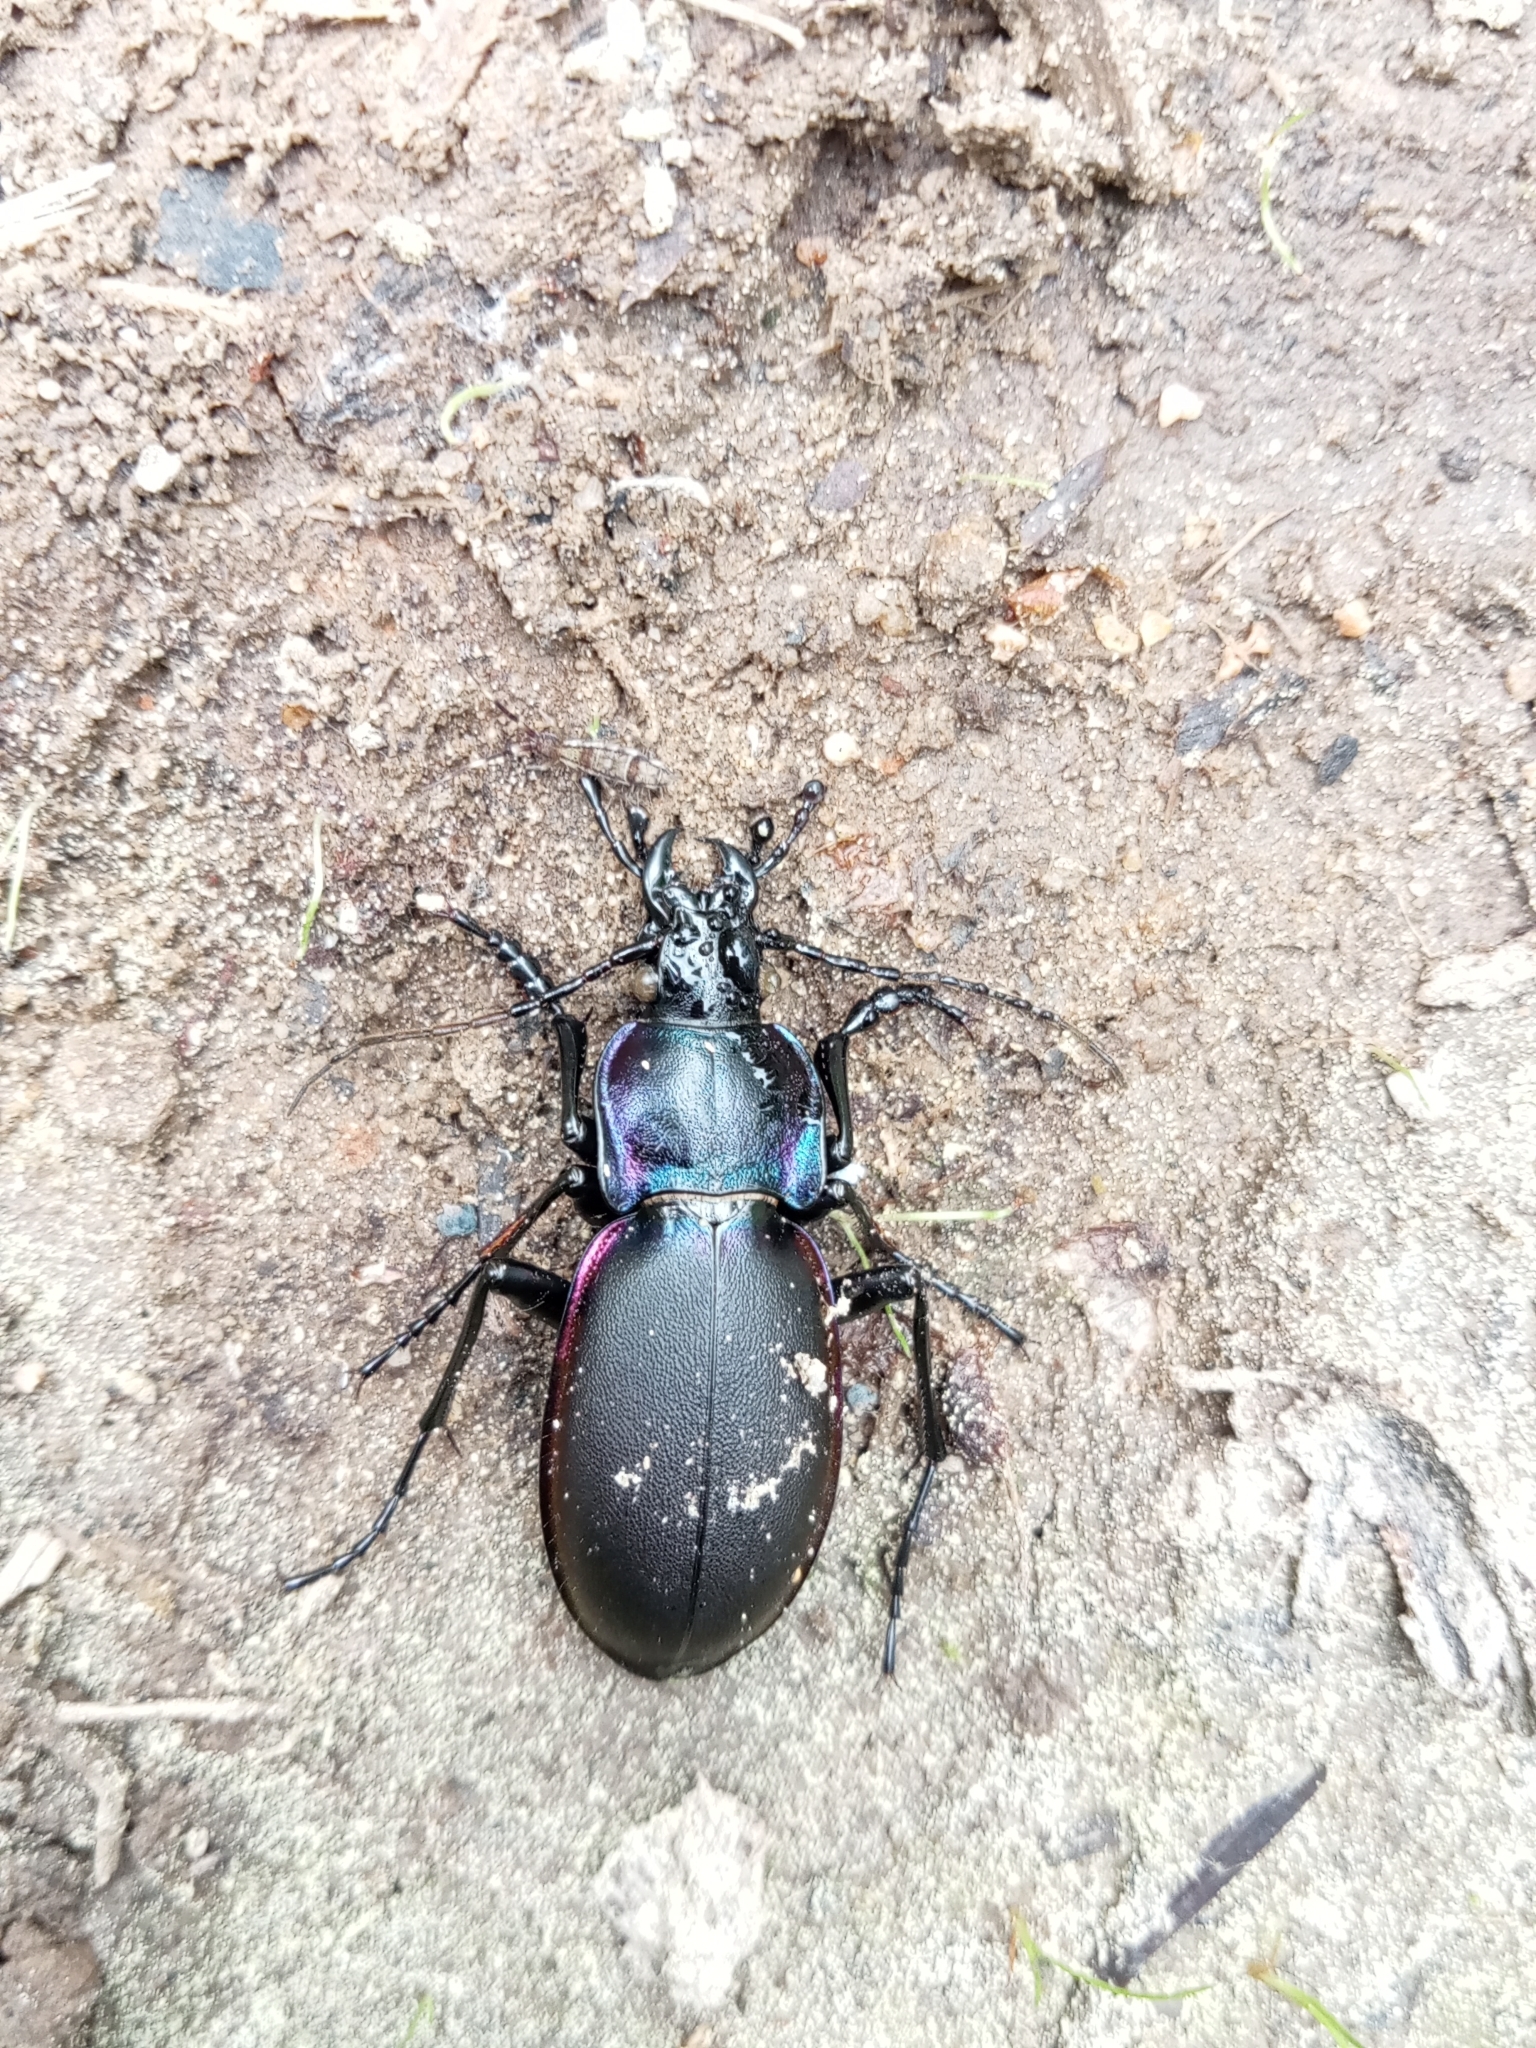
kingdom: Animalia
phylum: Arthropoda
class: Insecta
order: Coleoptera
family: Carabidae
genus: Carabus
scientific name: Carabus violaceus
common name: Violet ground beetle
